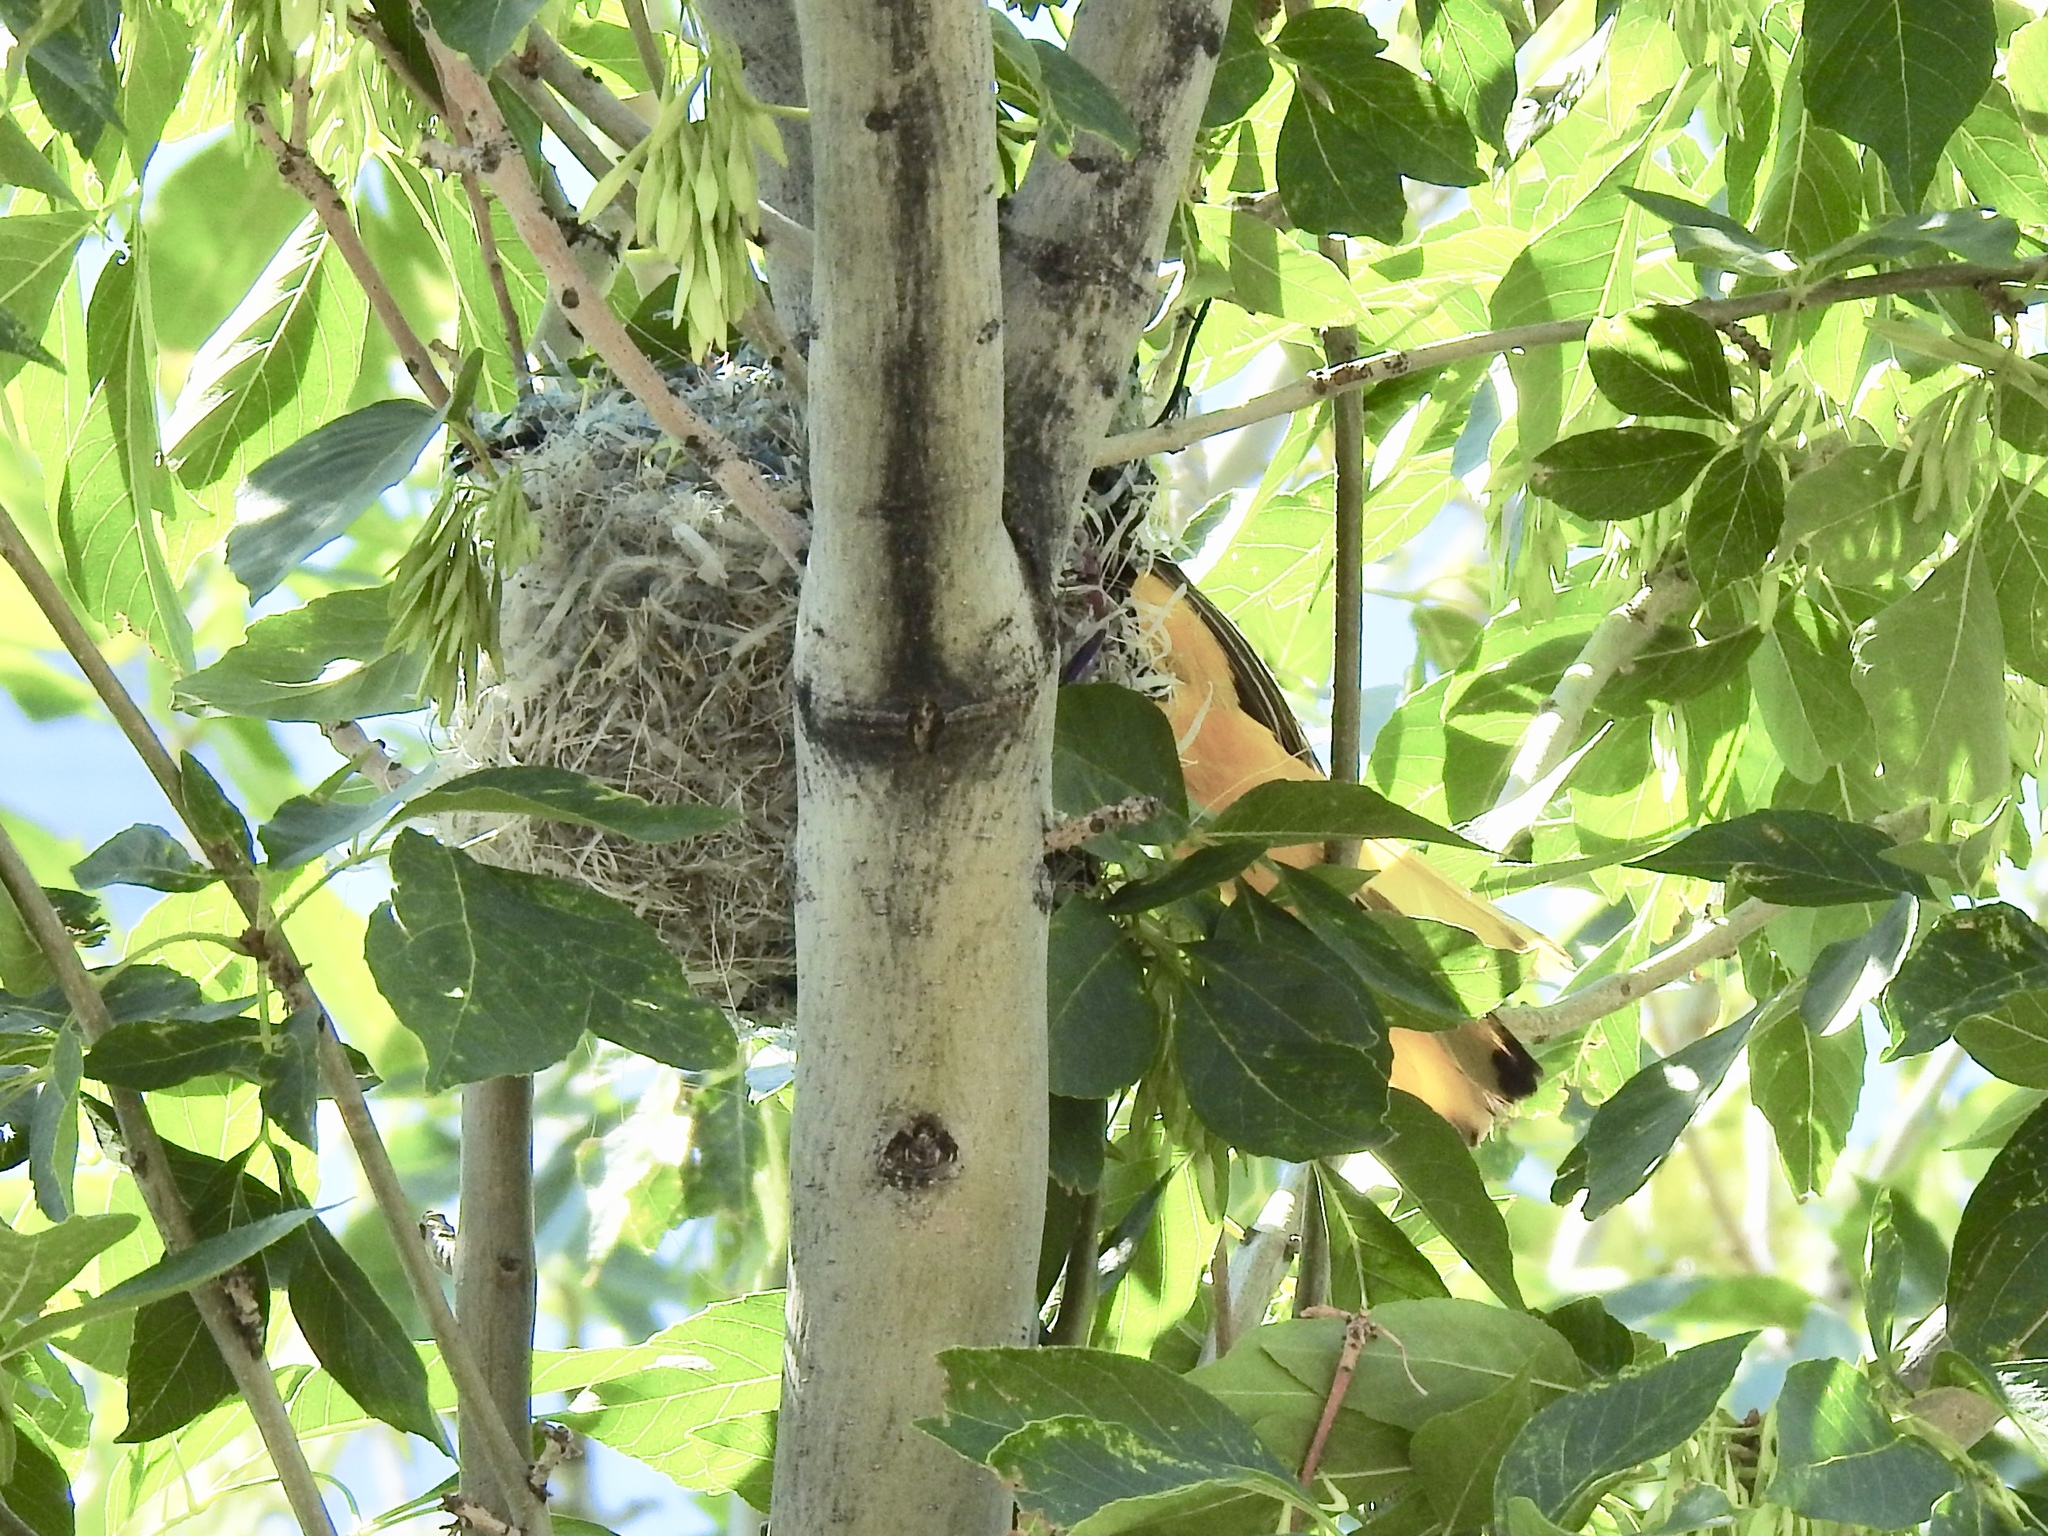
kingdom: Animalia
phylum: Chordata
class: Aves
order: Passeriformes
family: Icteridae
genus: Icterus
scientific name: Icterus bullockii
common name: Bullock's oriole
